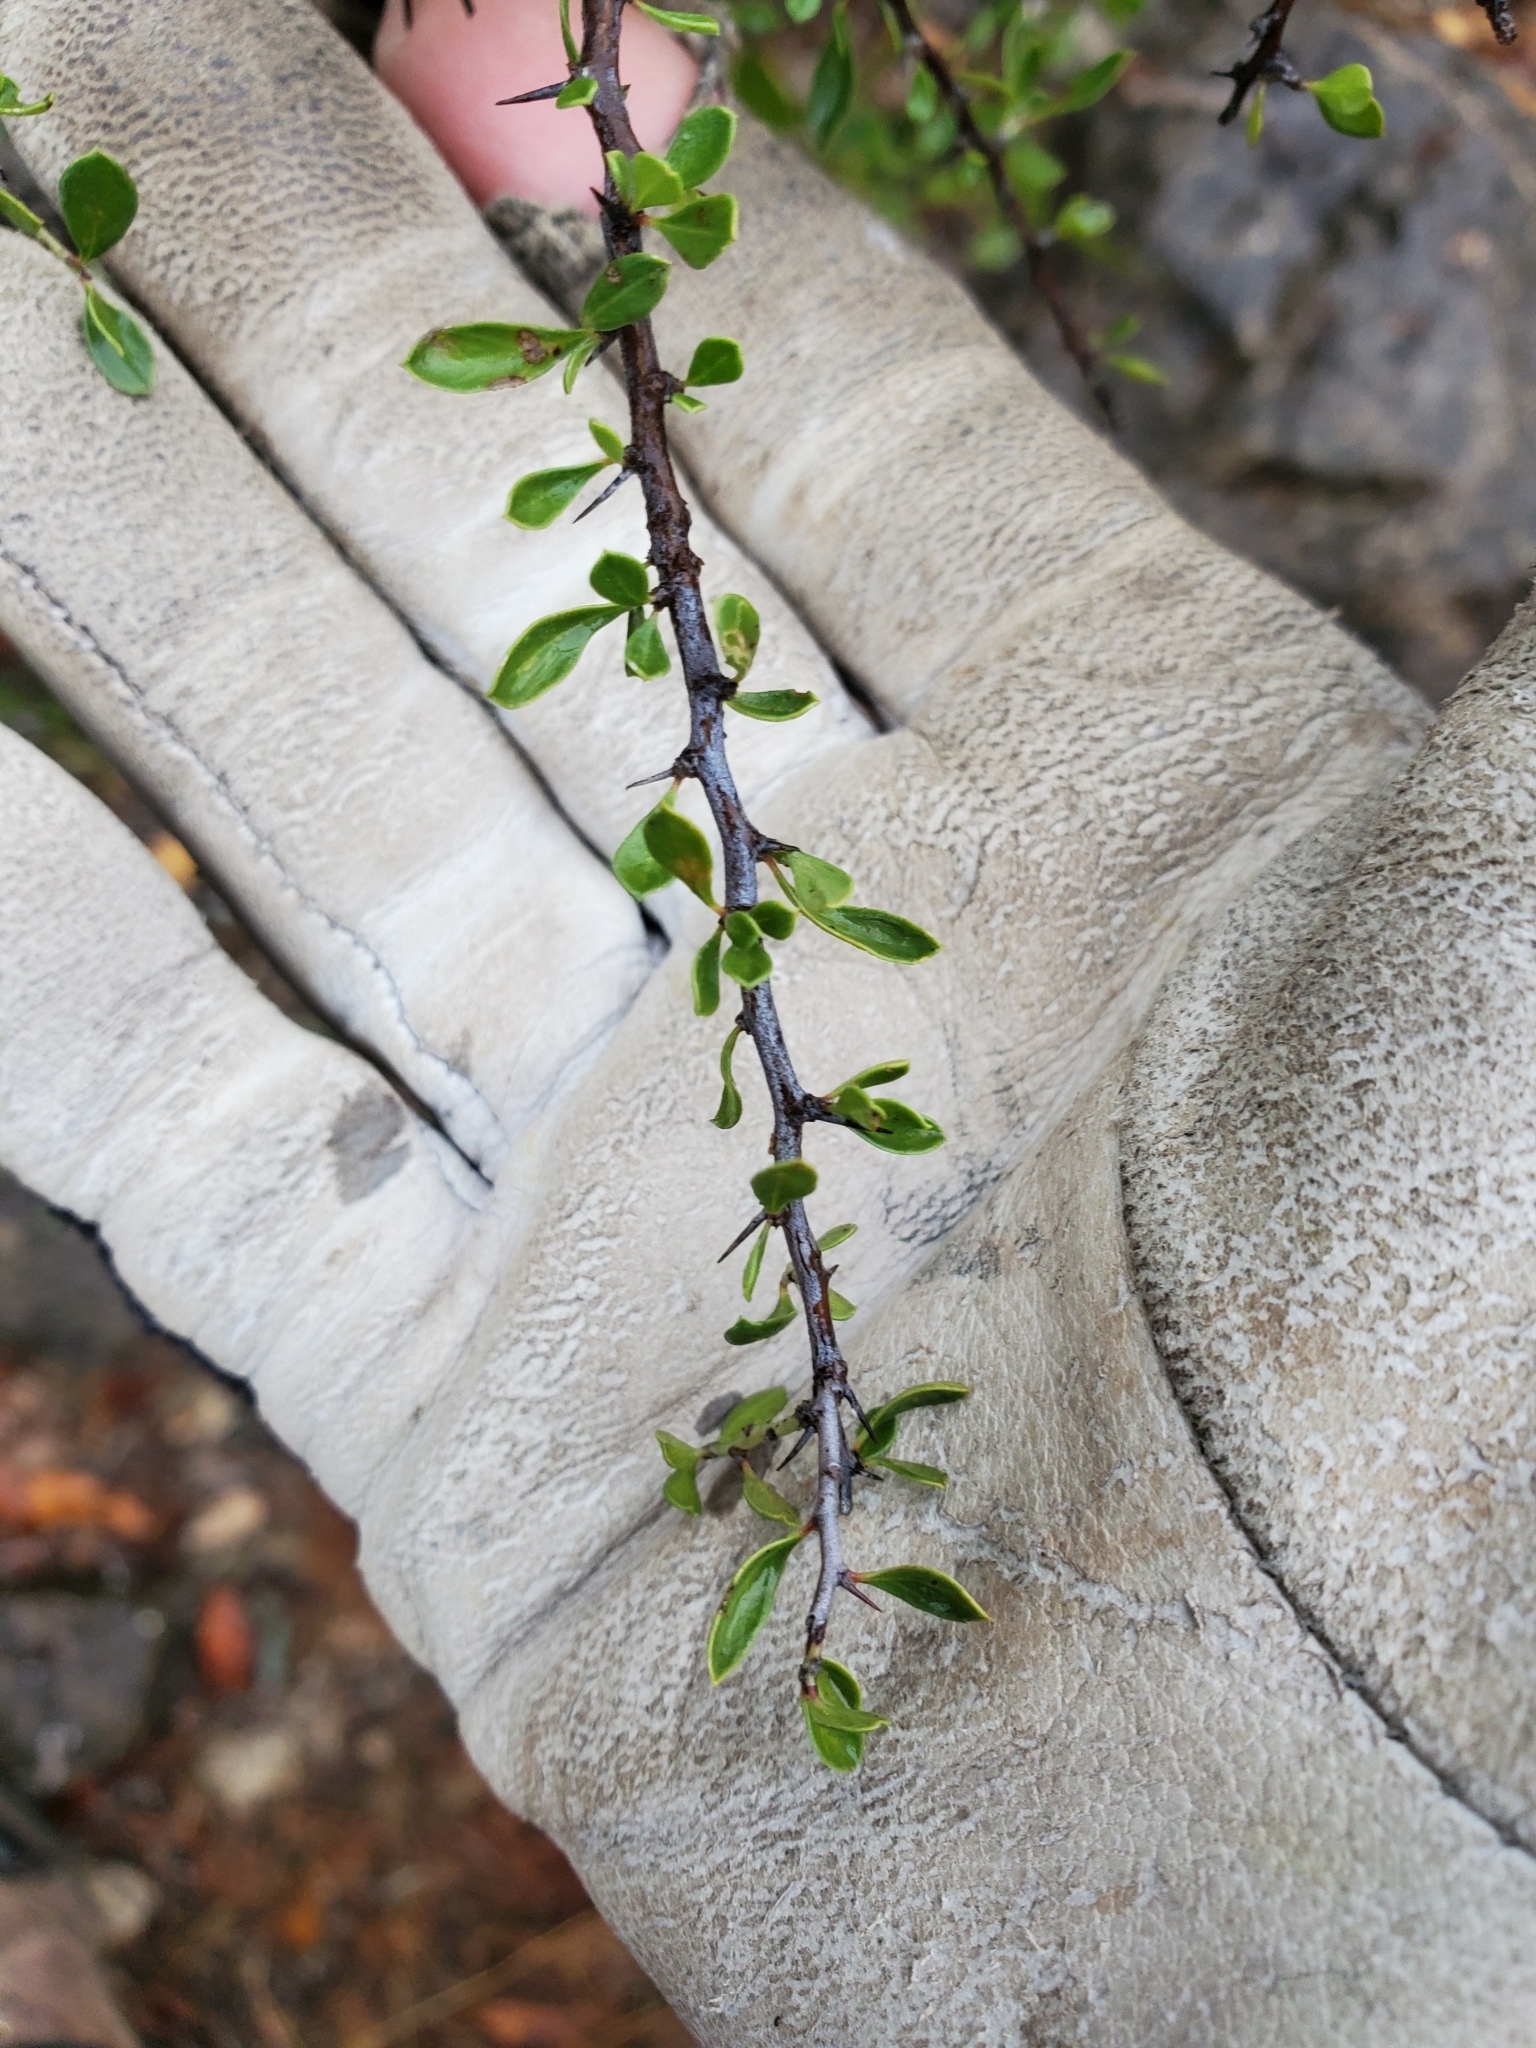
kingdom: Plantae
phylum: Tracheophyta
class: Magnoliopsida
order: Rosales
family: Rhamnaceae
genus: Condalia
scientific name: Condalia viridis
